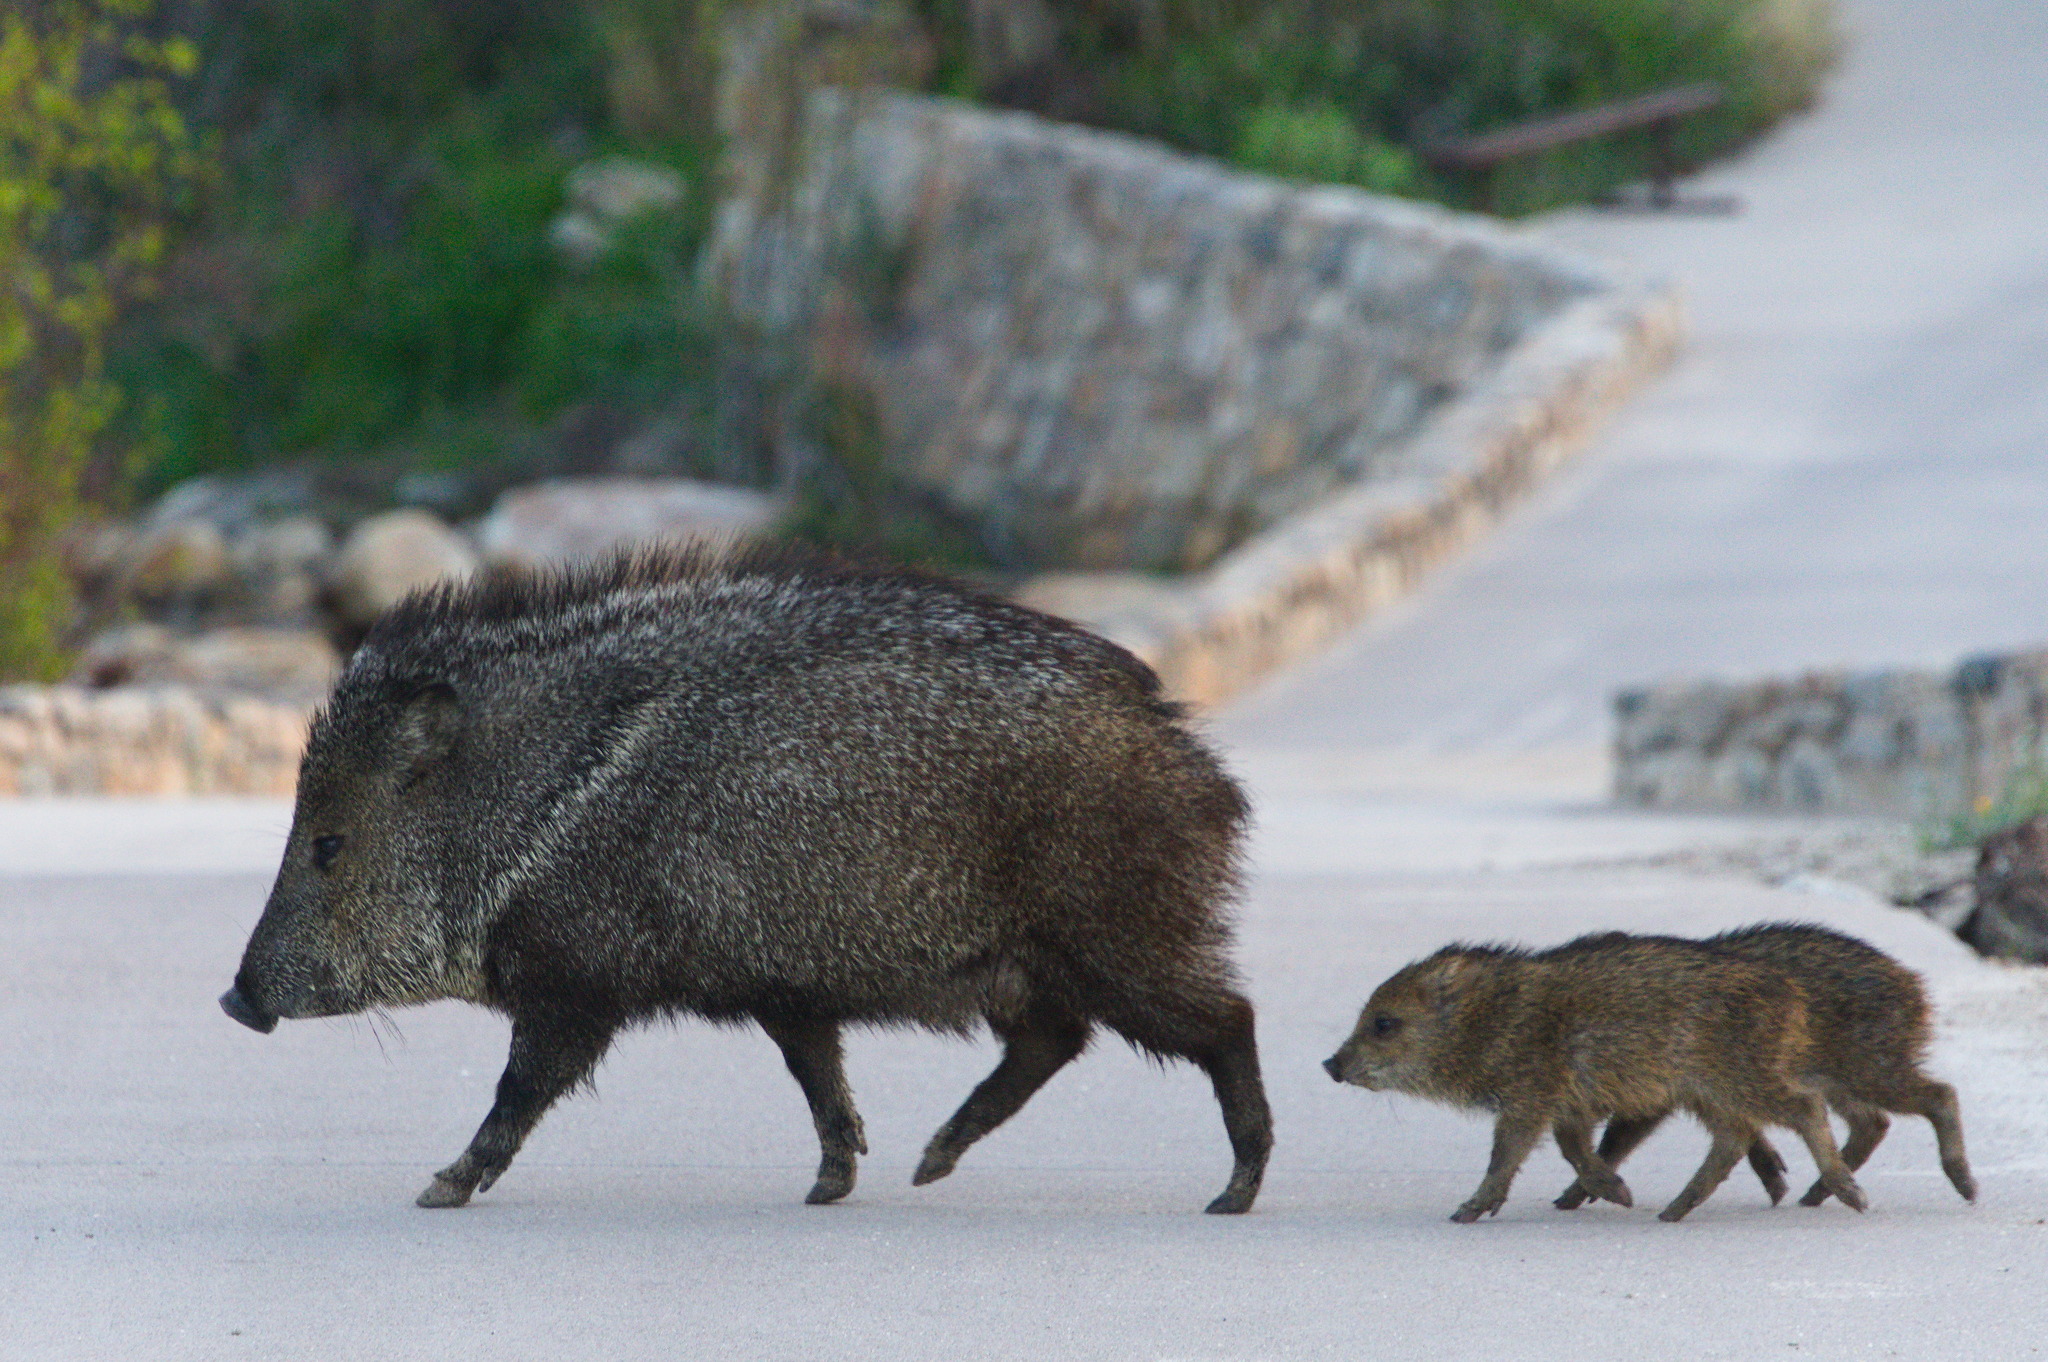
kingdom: Animalia
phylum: Chordata
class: Mammalia
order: Artiodactyla
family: Tayassuidae
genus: Pecari
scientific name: Pecari tajacu
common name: Collared peccary
